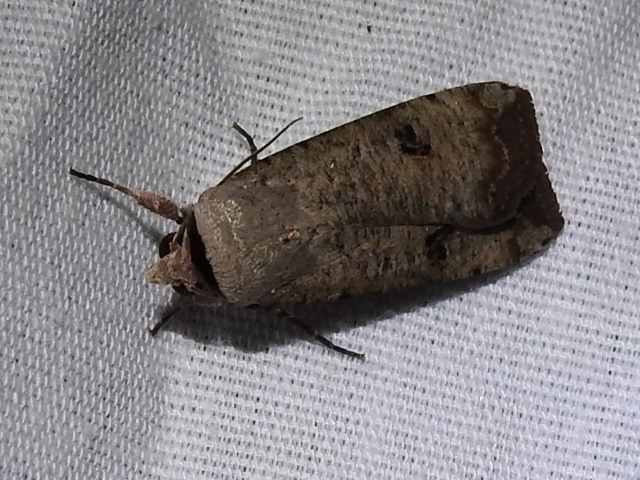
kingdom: Animalia
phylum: Arthropoda
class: Insecta
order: Lepidoptera
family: Noctuidae
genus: Anicla
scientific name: Anicla infecta
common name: Green cutworm
